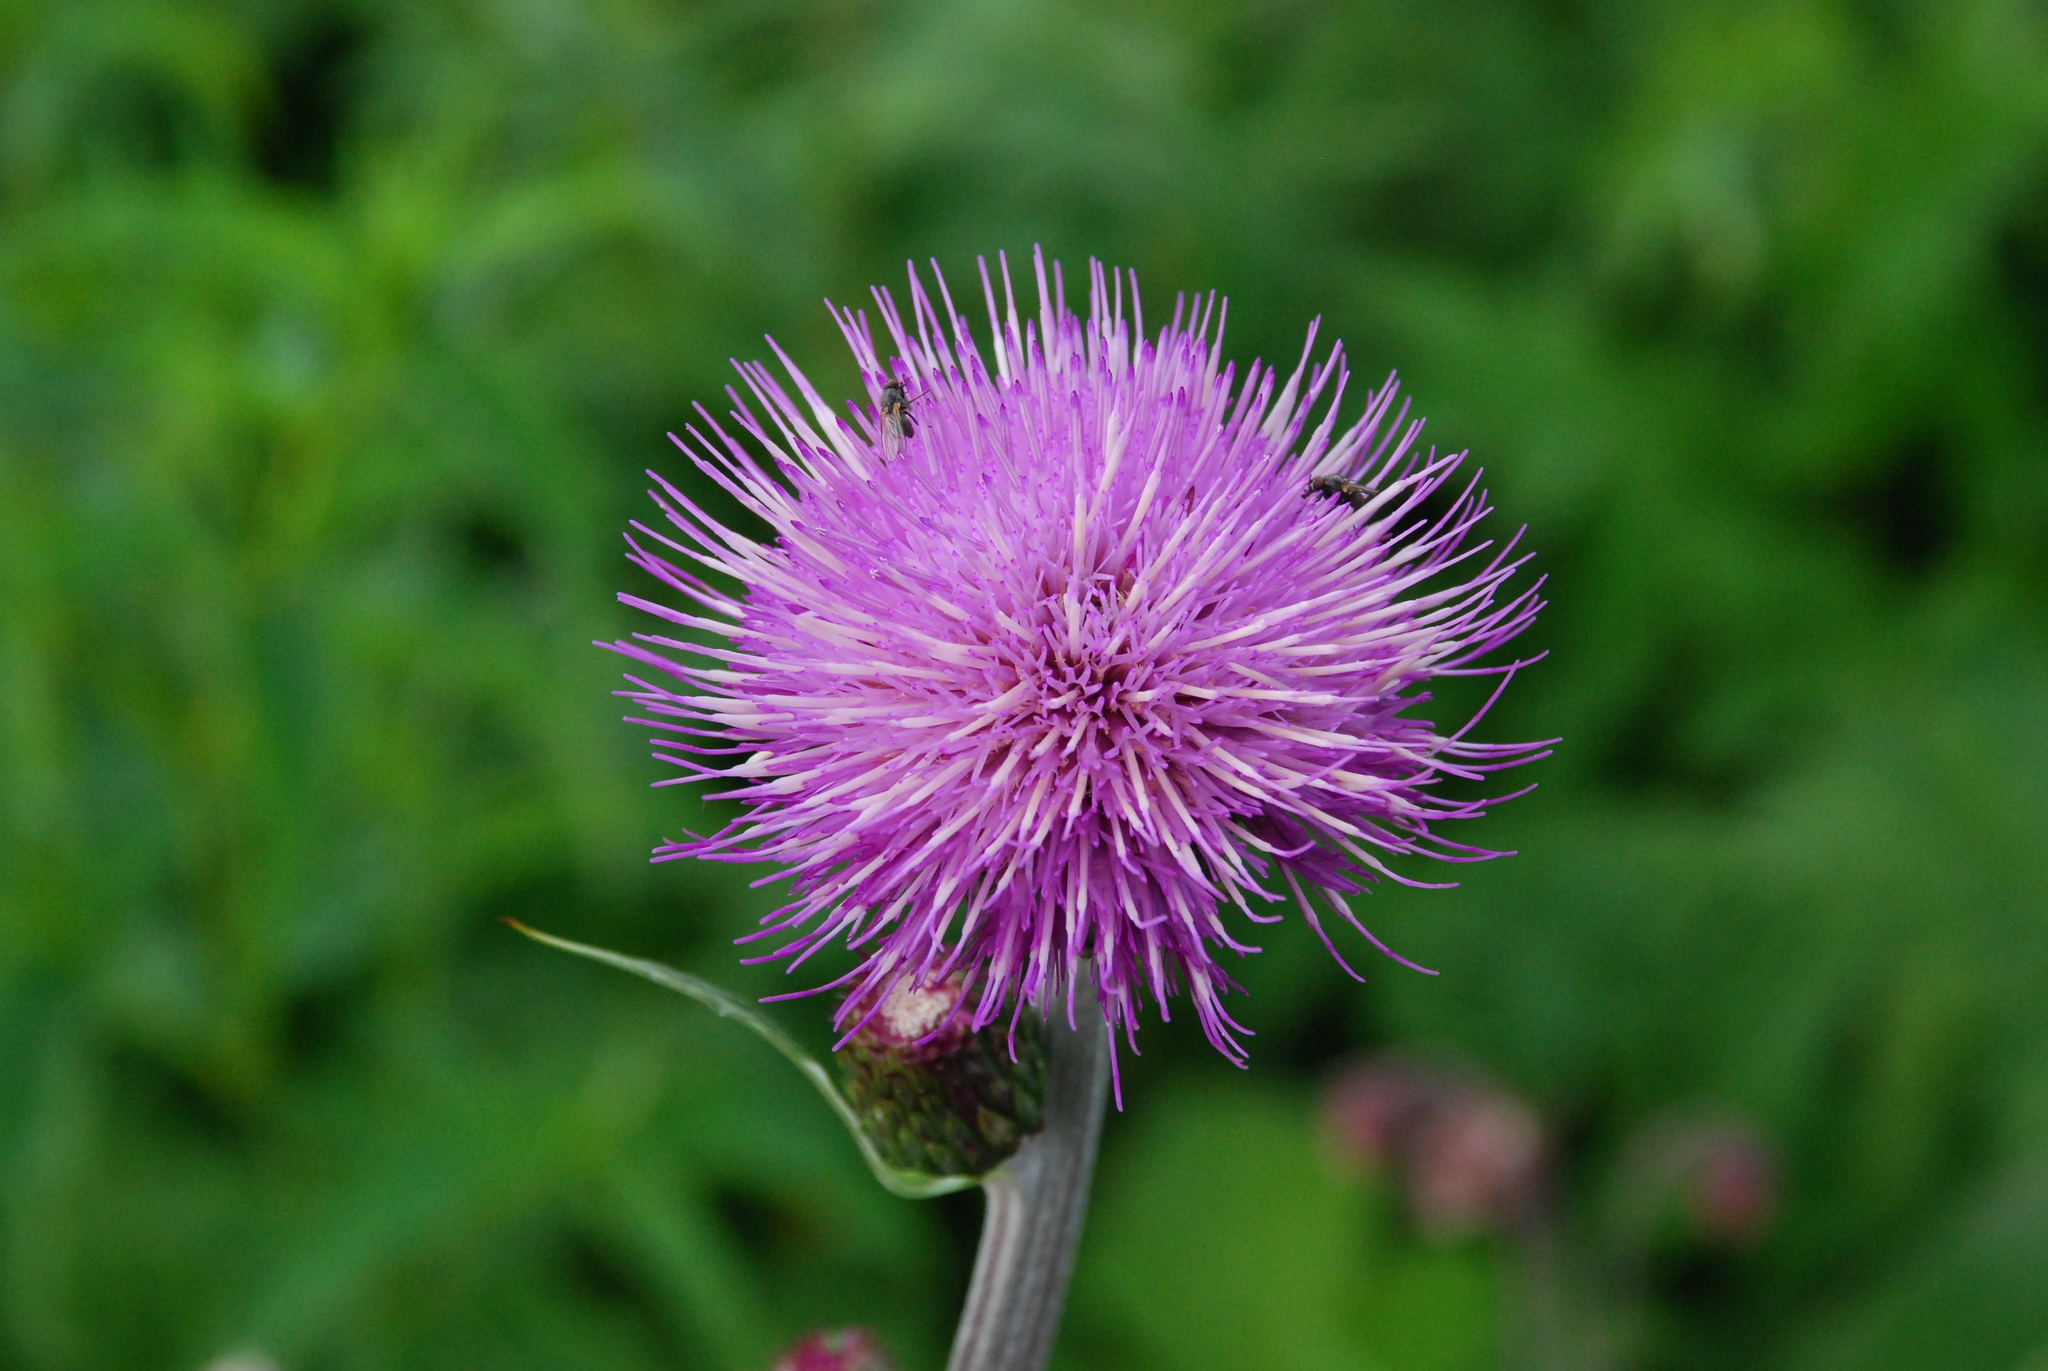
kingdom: Plantae
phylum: Tracheophyta
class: Magnoliopsida
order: Asterales
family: Asteraceae
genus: Cirsium
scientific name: Cirsium heterophyllum
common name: Melancholy thistle
